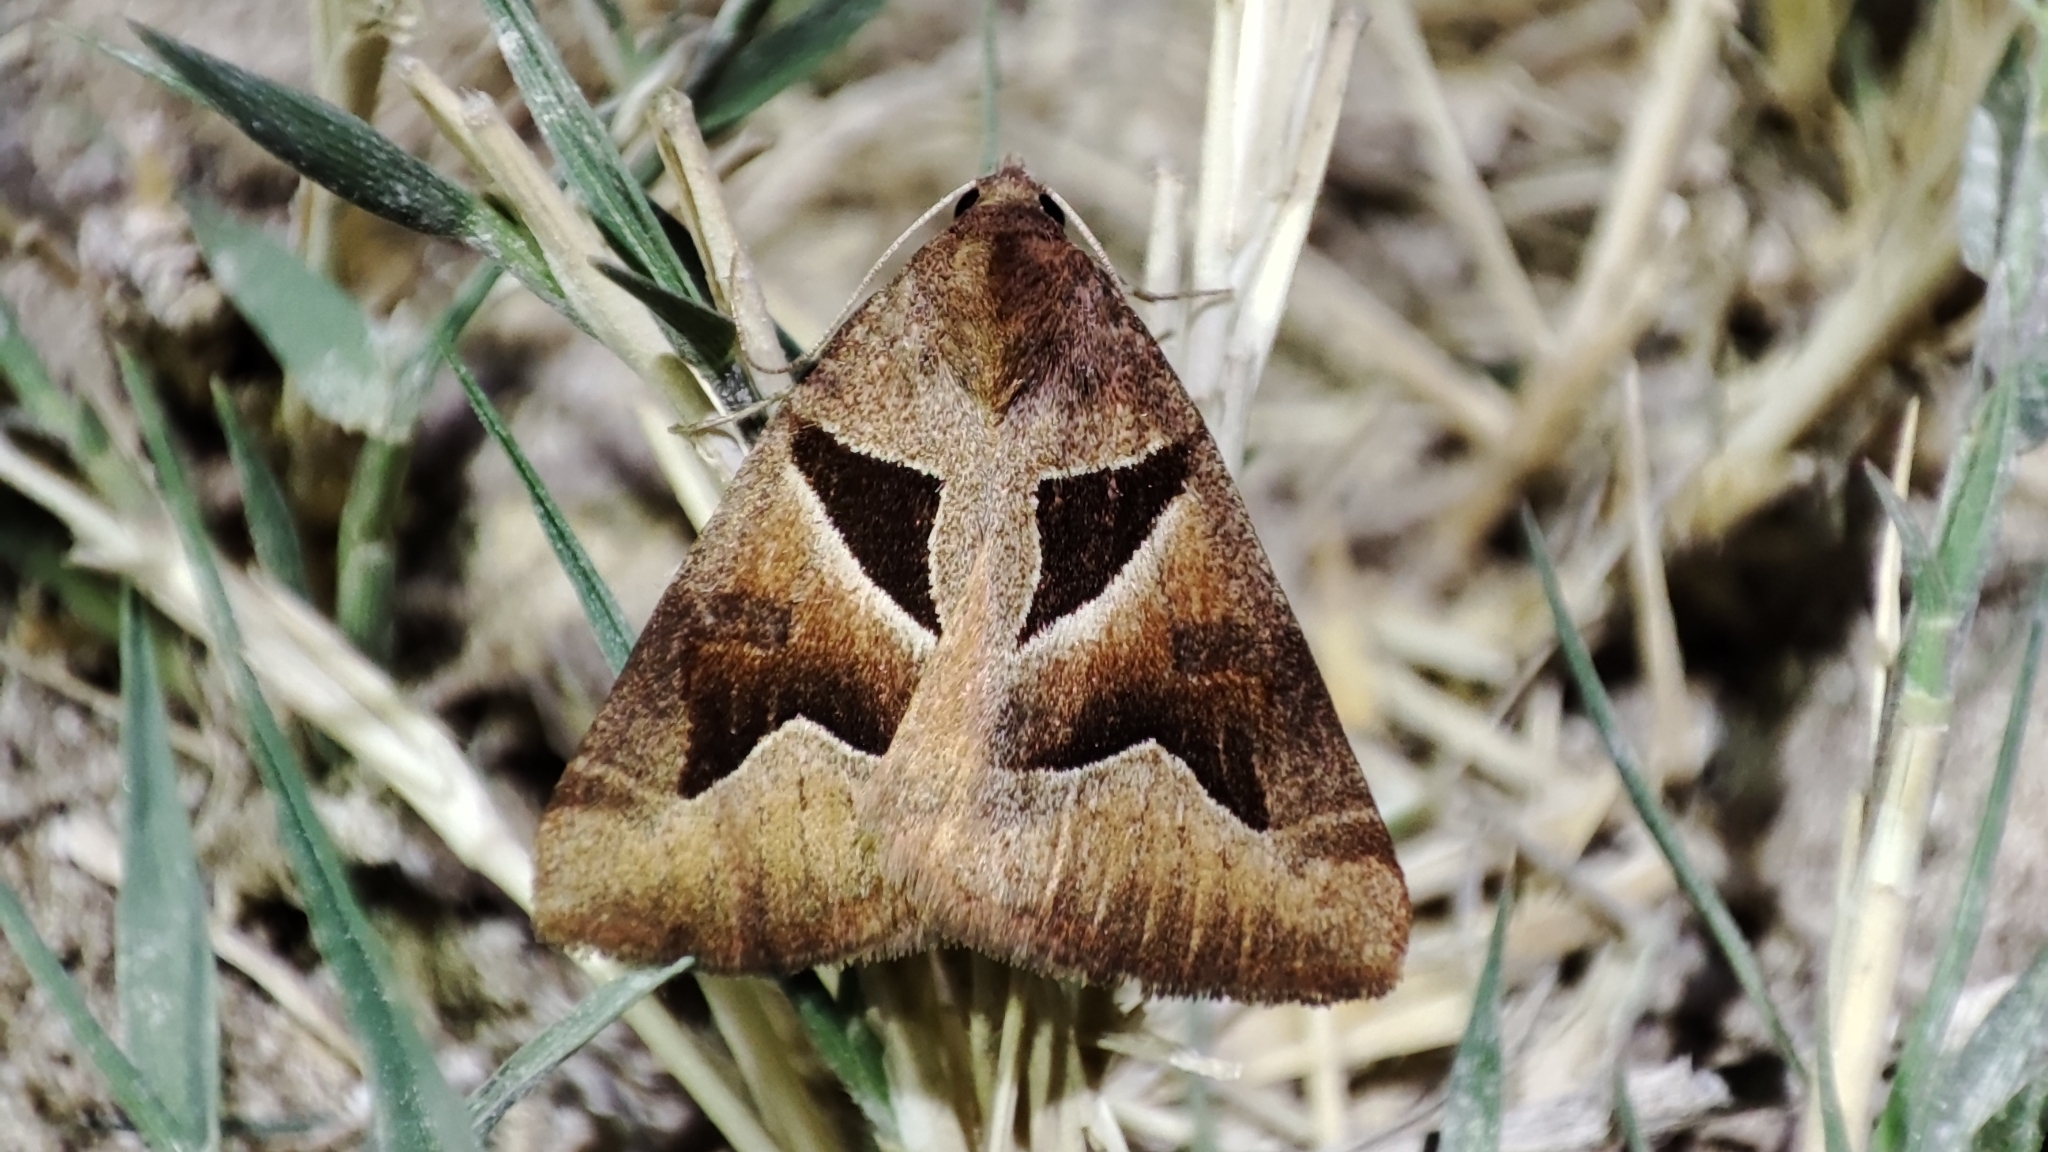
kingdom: Animalia
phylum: Arthropoda
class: Insecta
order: Lepidoptera
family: Erebidae
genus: Euclidia
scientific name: Euclidia munita
